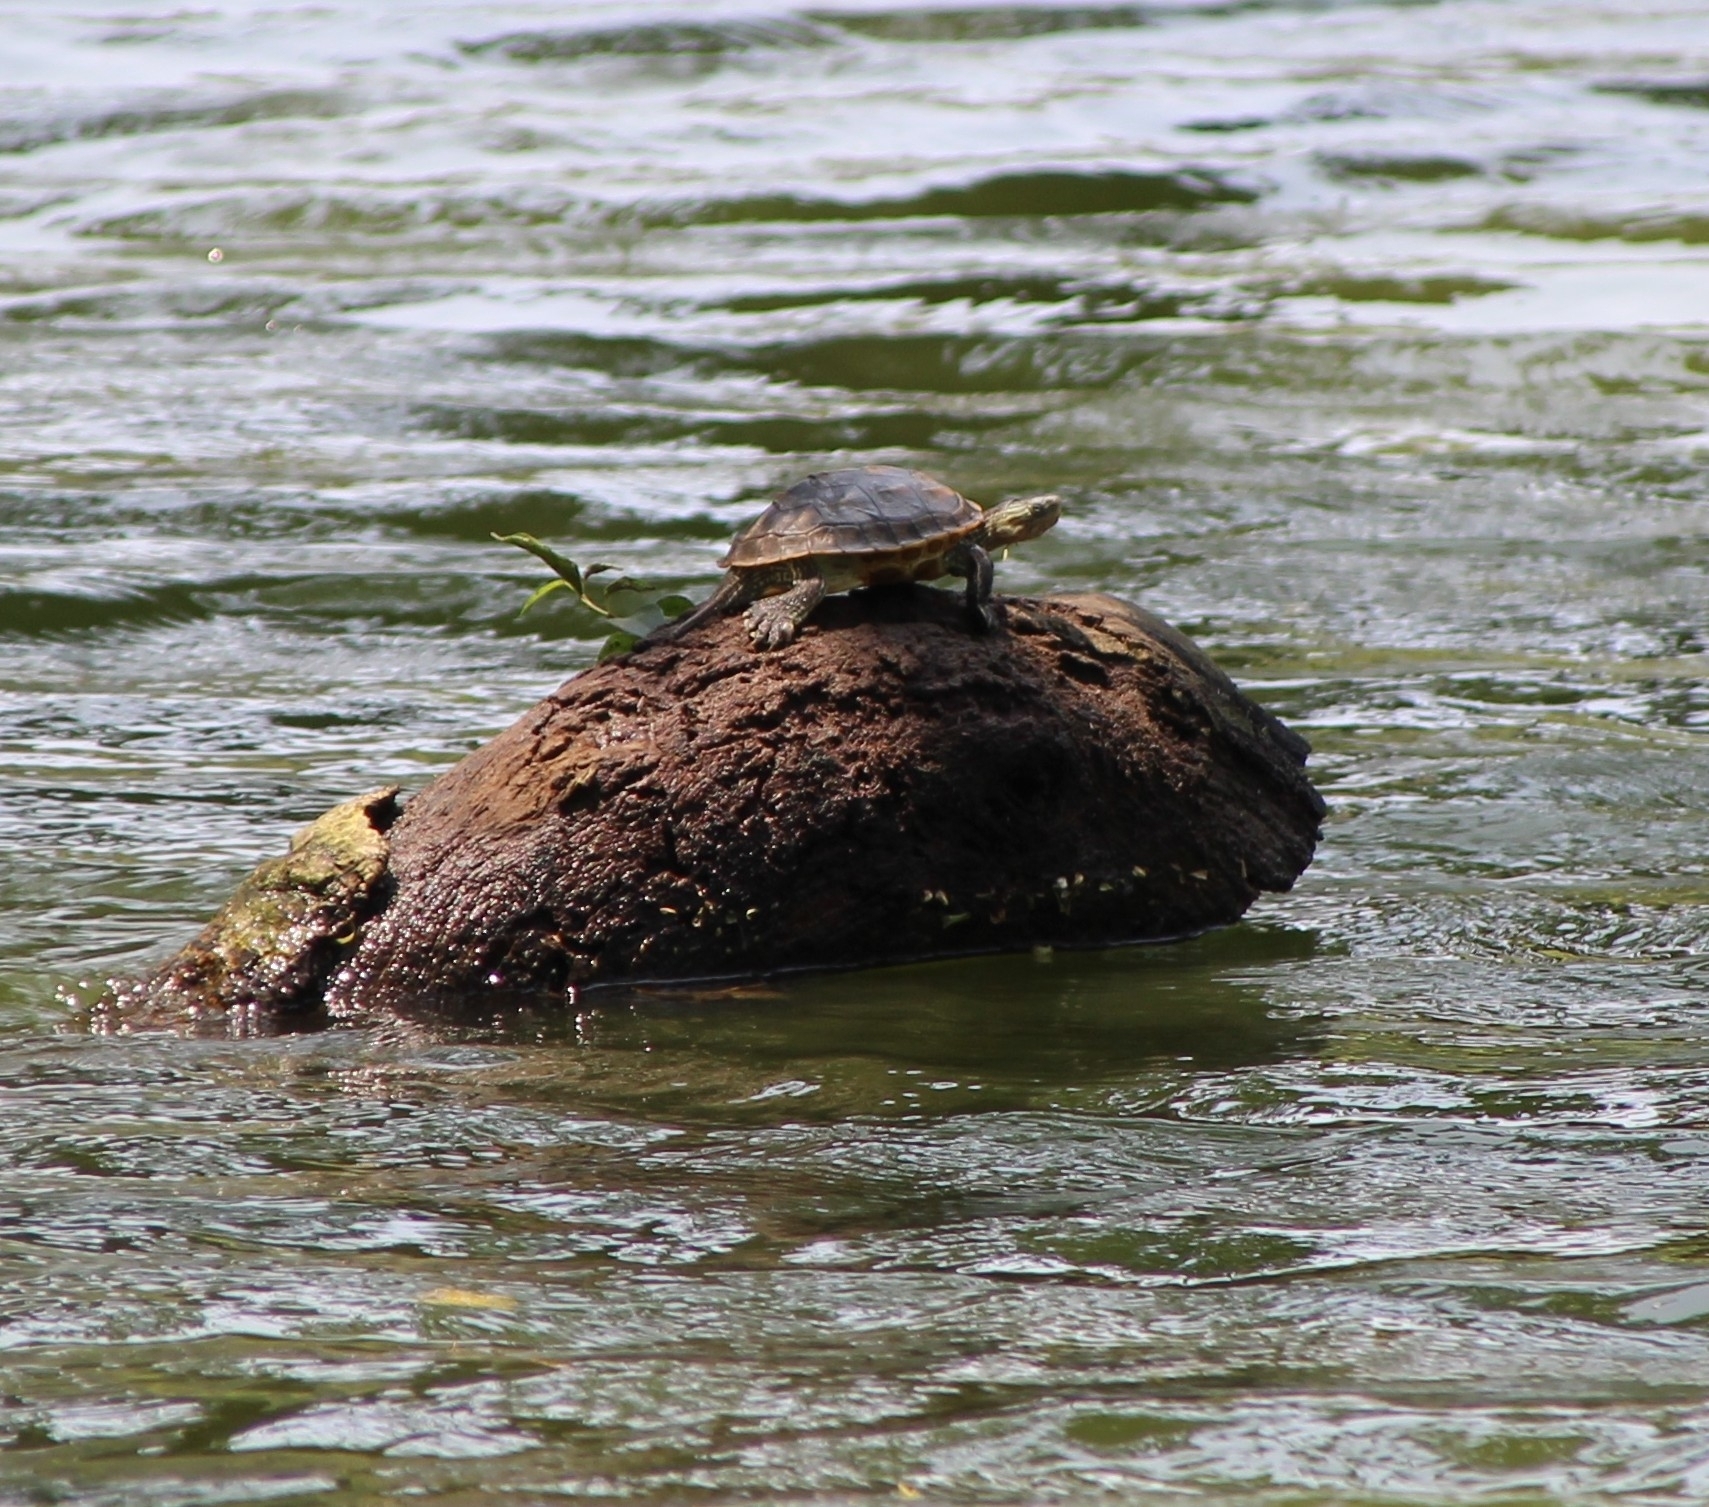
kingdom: Animalia
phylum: Chordata
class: Testudines
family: Geoemydidae
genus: Mauremys
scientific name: Mauremys sinensis
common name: Chinese stripe-necked turtle
